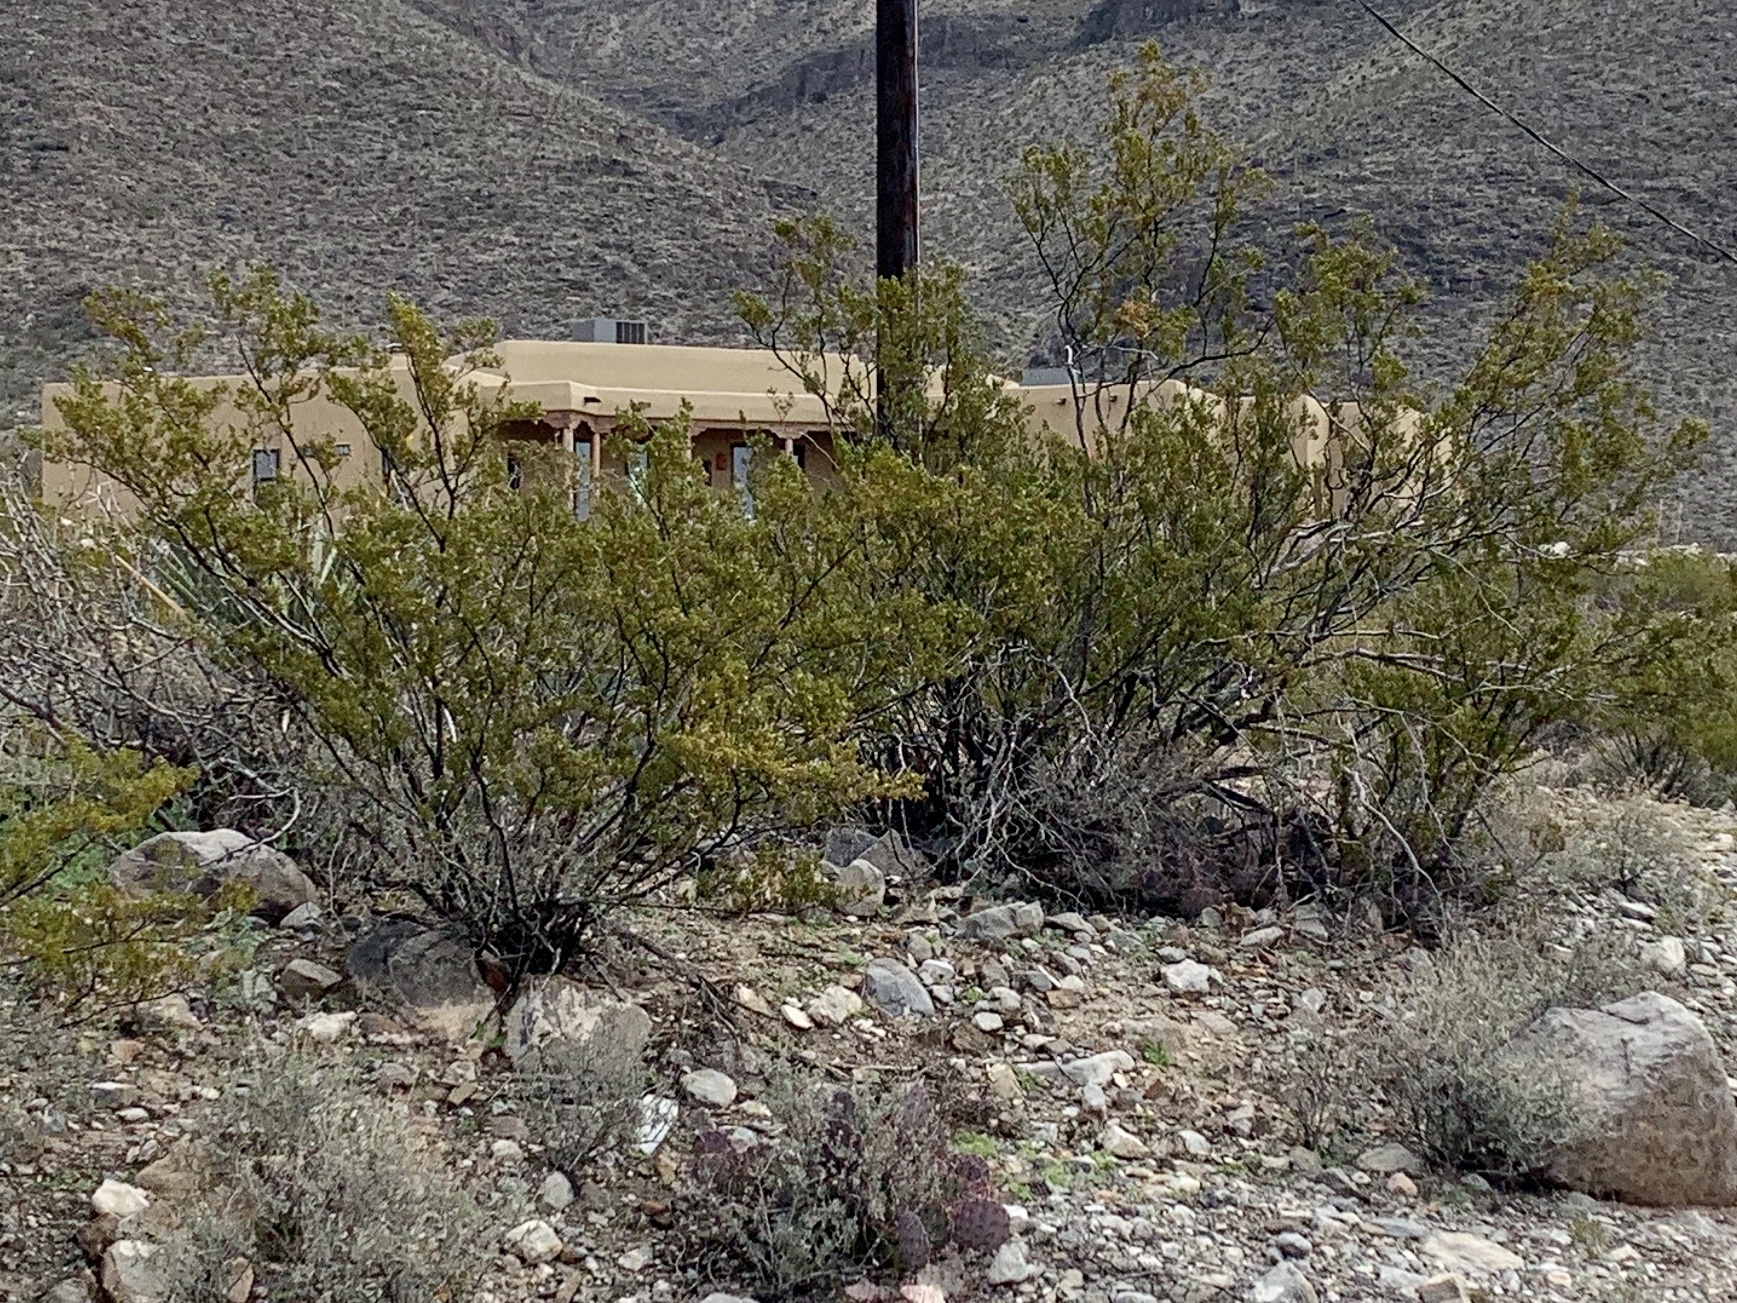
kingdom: Plantae
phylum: Tracheophyta
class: Magnoliopsida
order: Zygophyllales
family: Zygophyllaceae
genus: Larrea
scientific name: Larrea tridentata
